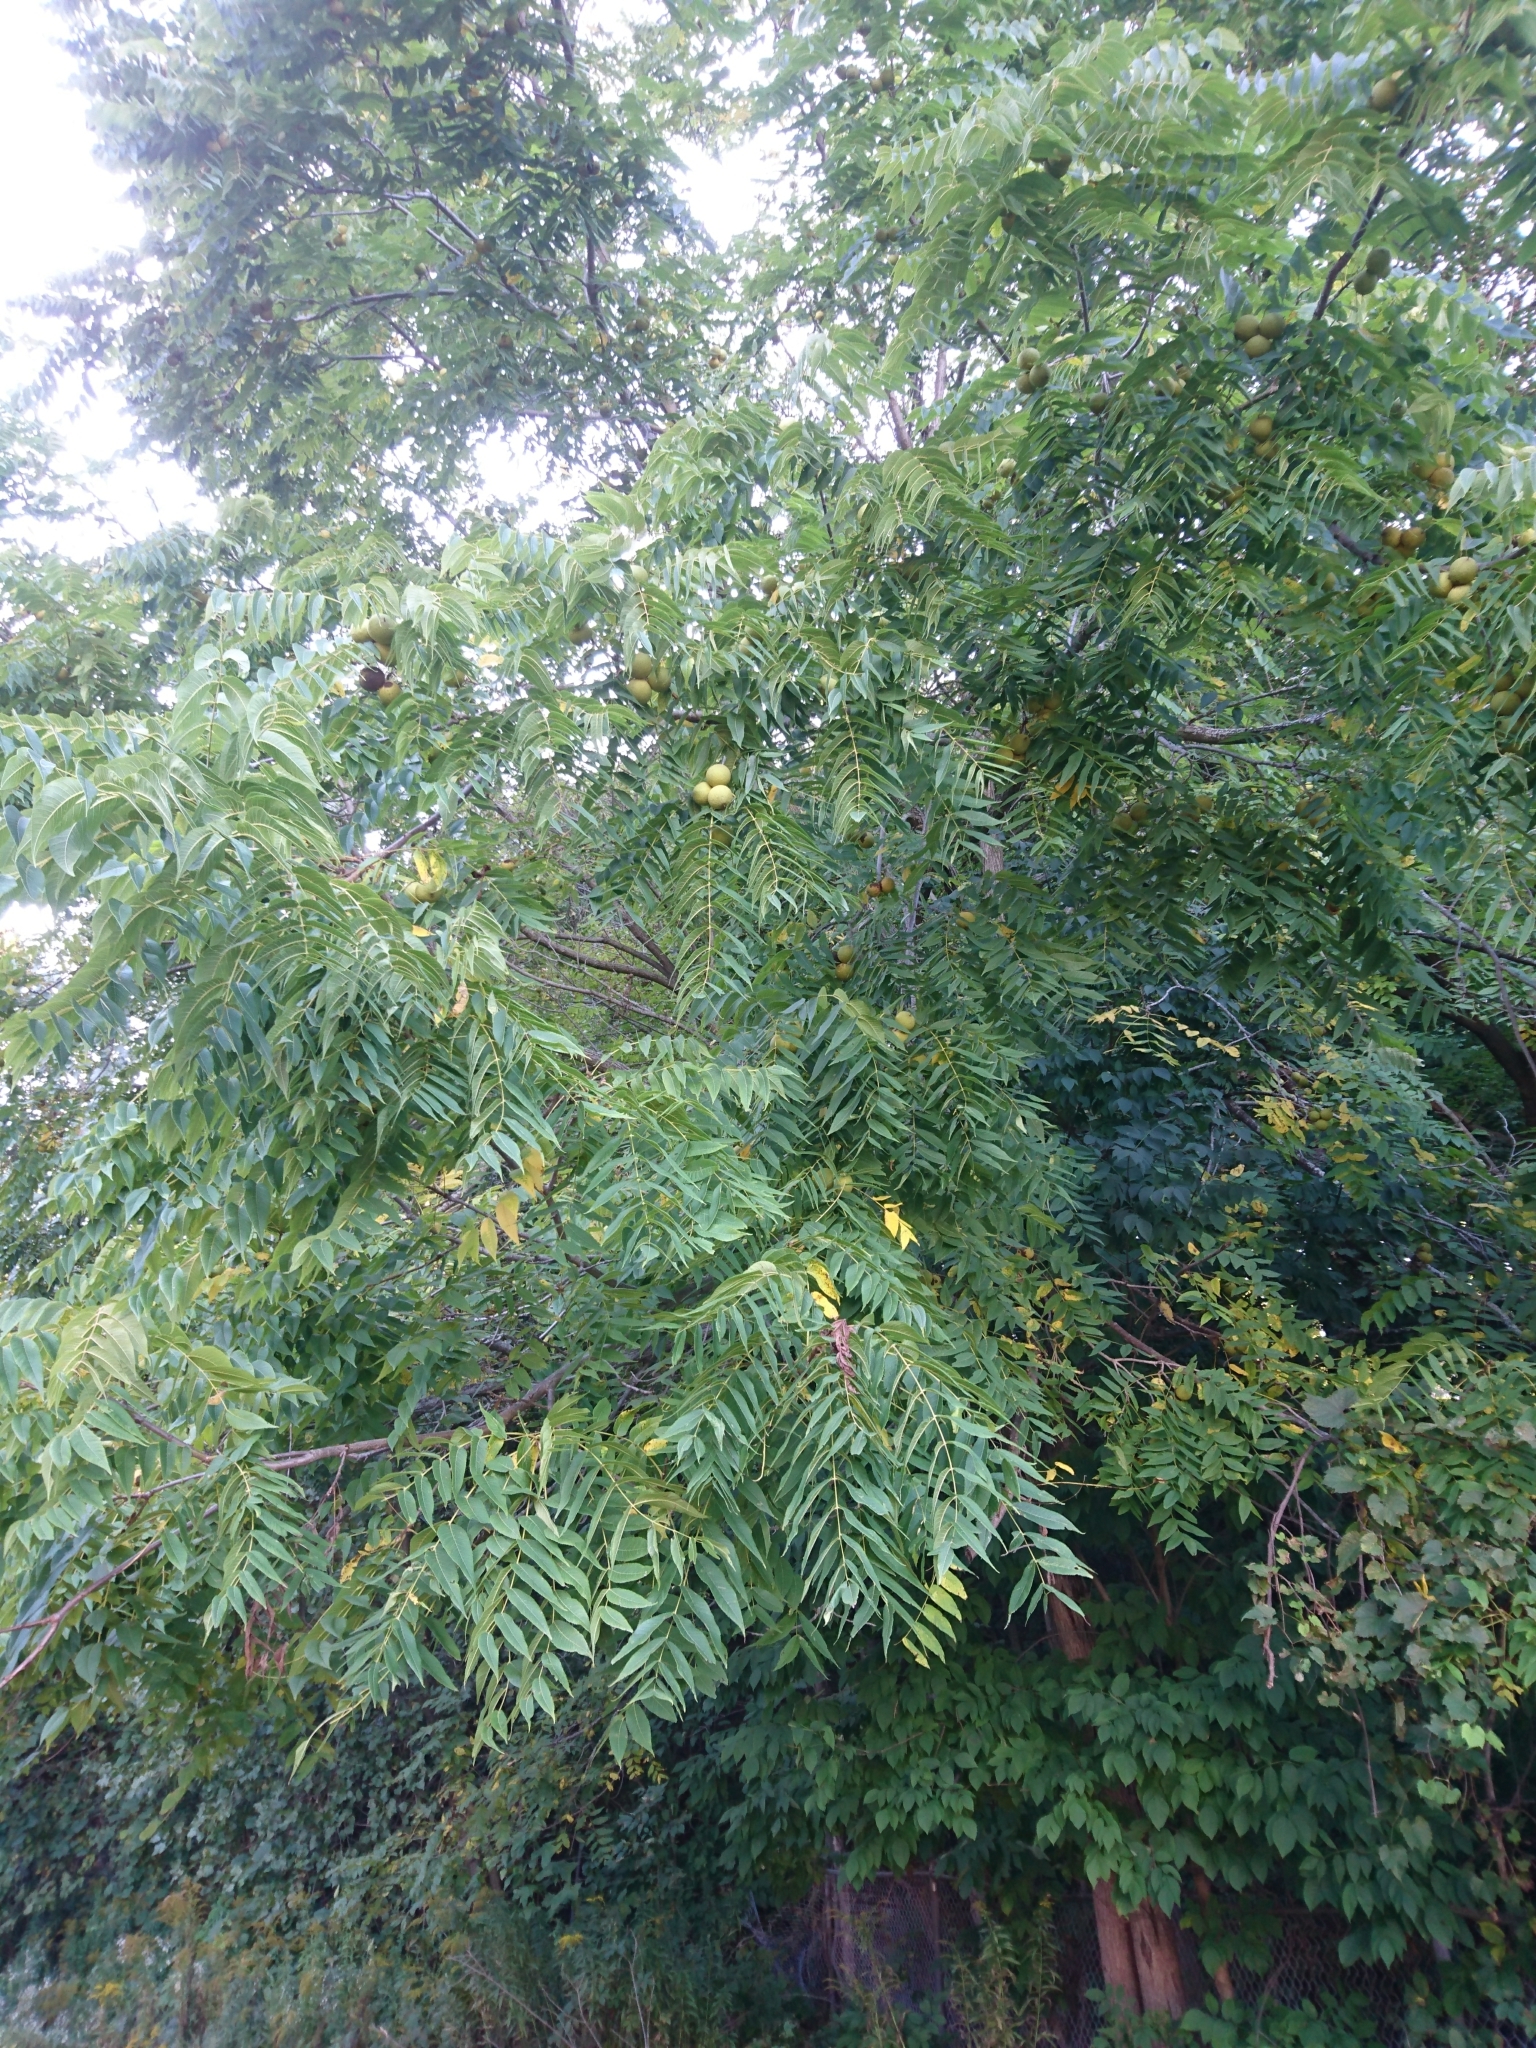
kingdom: Plantae
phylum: Tracheophyta
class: Magnoliopsida
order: Fagales
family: Juglandaceae
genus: Juglans
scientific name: Juglans nigra
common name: Black walnut
